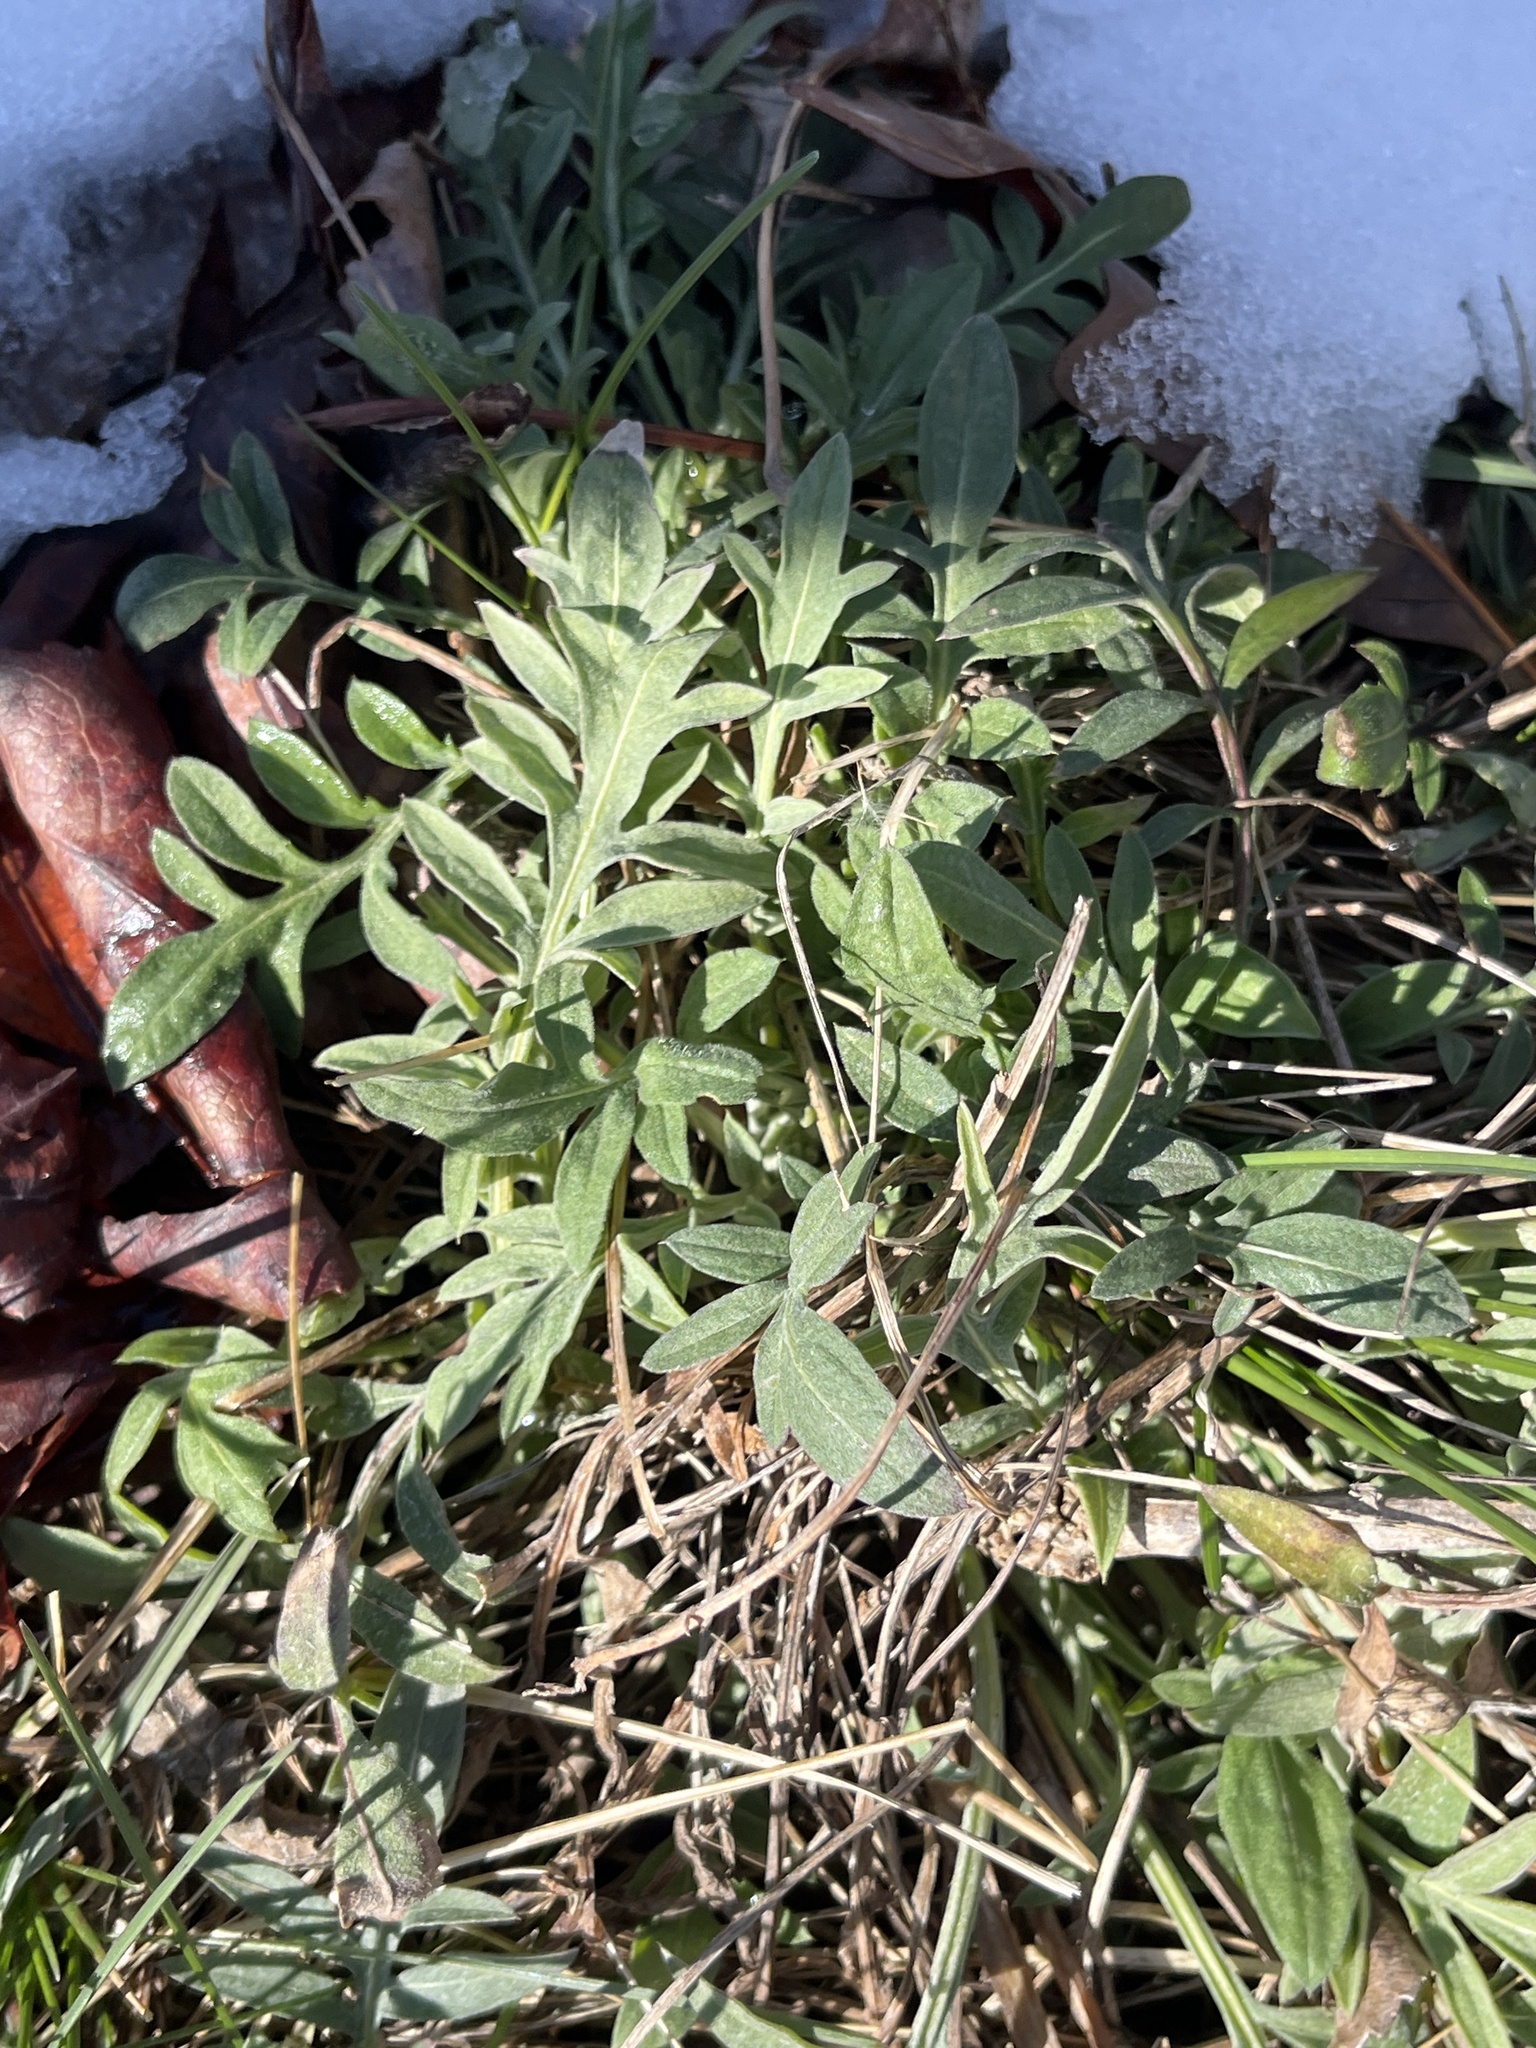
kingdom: Plantae
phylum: Tracheophyta
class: Magnoliopsida
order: Asterales
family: Asteraceae
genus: Centaurea
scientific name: Centaurea stoebe
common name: Spotted knapweed
